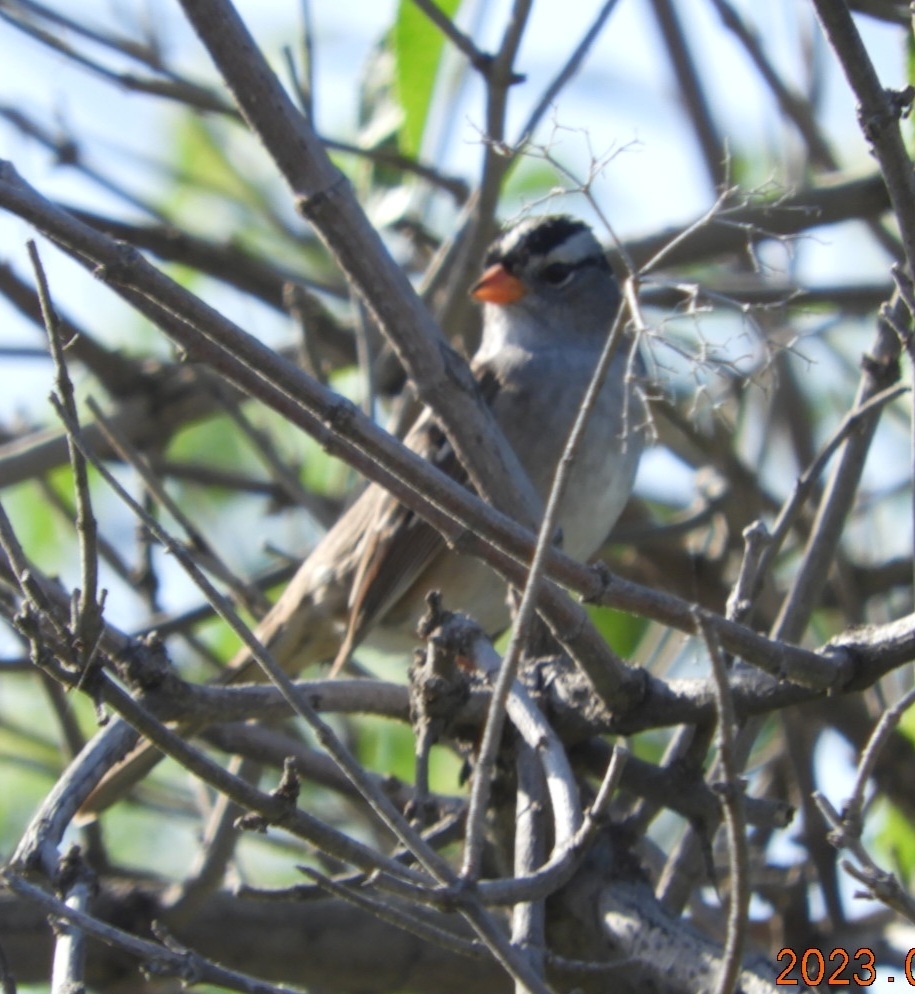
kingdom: Animalia
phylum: Chordata
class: Aves
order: Passeriformes
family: Passerellidae
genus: Zonotrichia
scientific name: Zonotrichia leucophrys
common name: White-crowned sparrow
